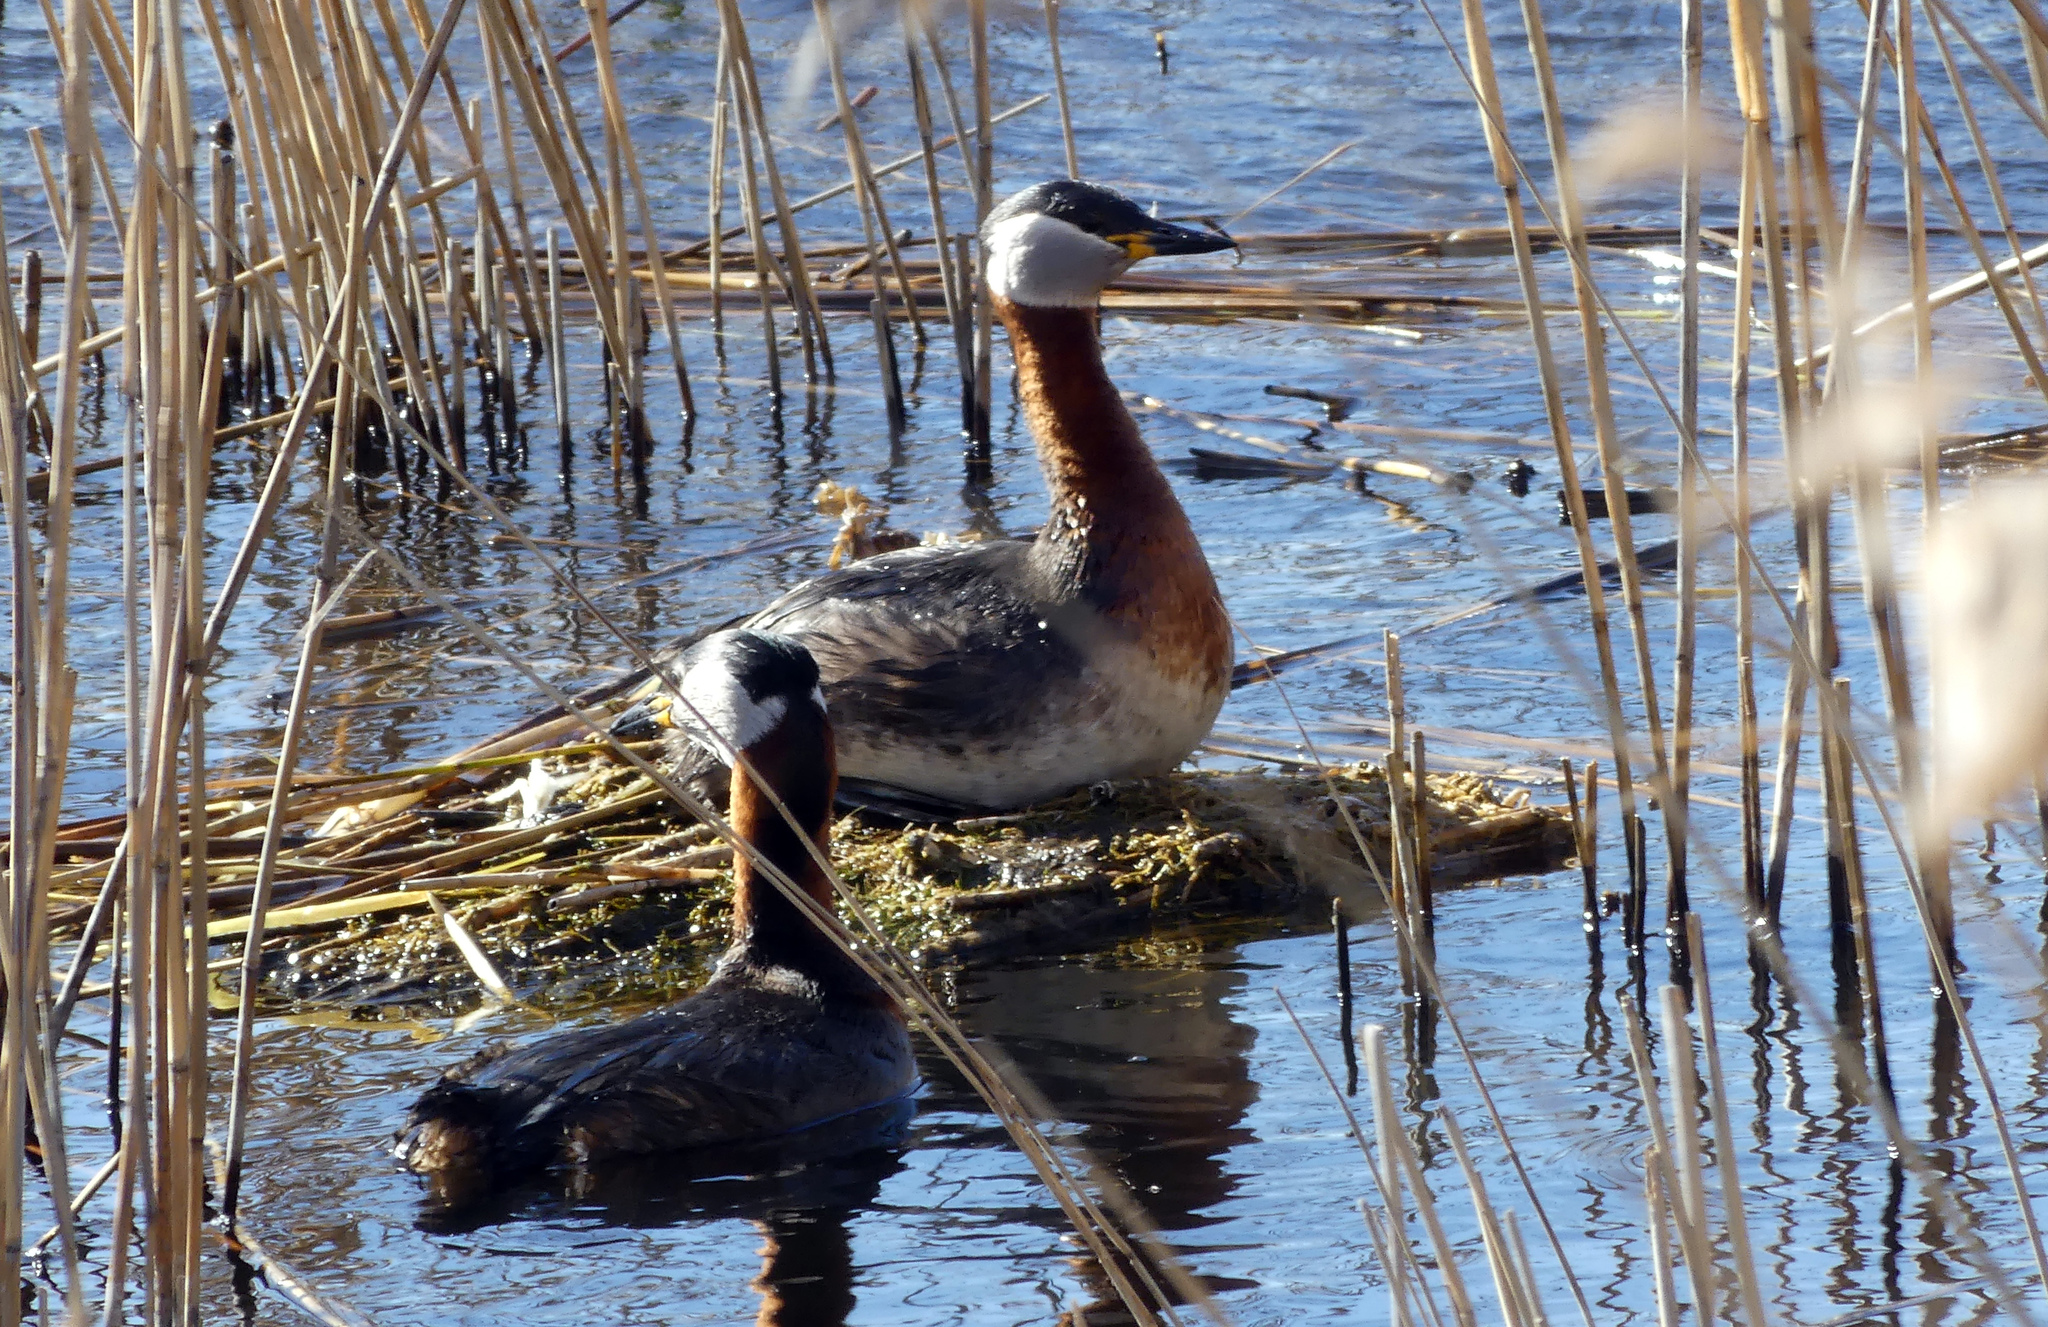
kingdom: Animalia
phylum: Chordata
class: Aves
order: Podicipediformes
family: Podicipedidae
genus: Podiceps
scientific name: Podiceps grisegena
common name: Red-necked grebe
